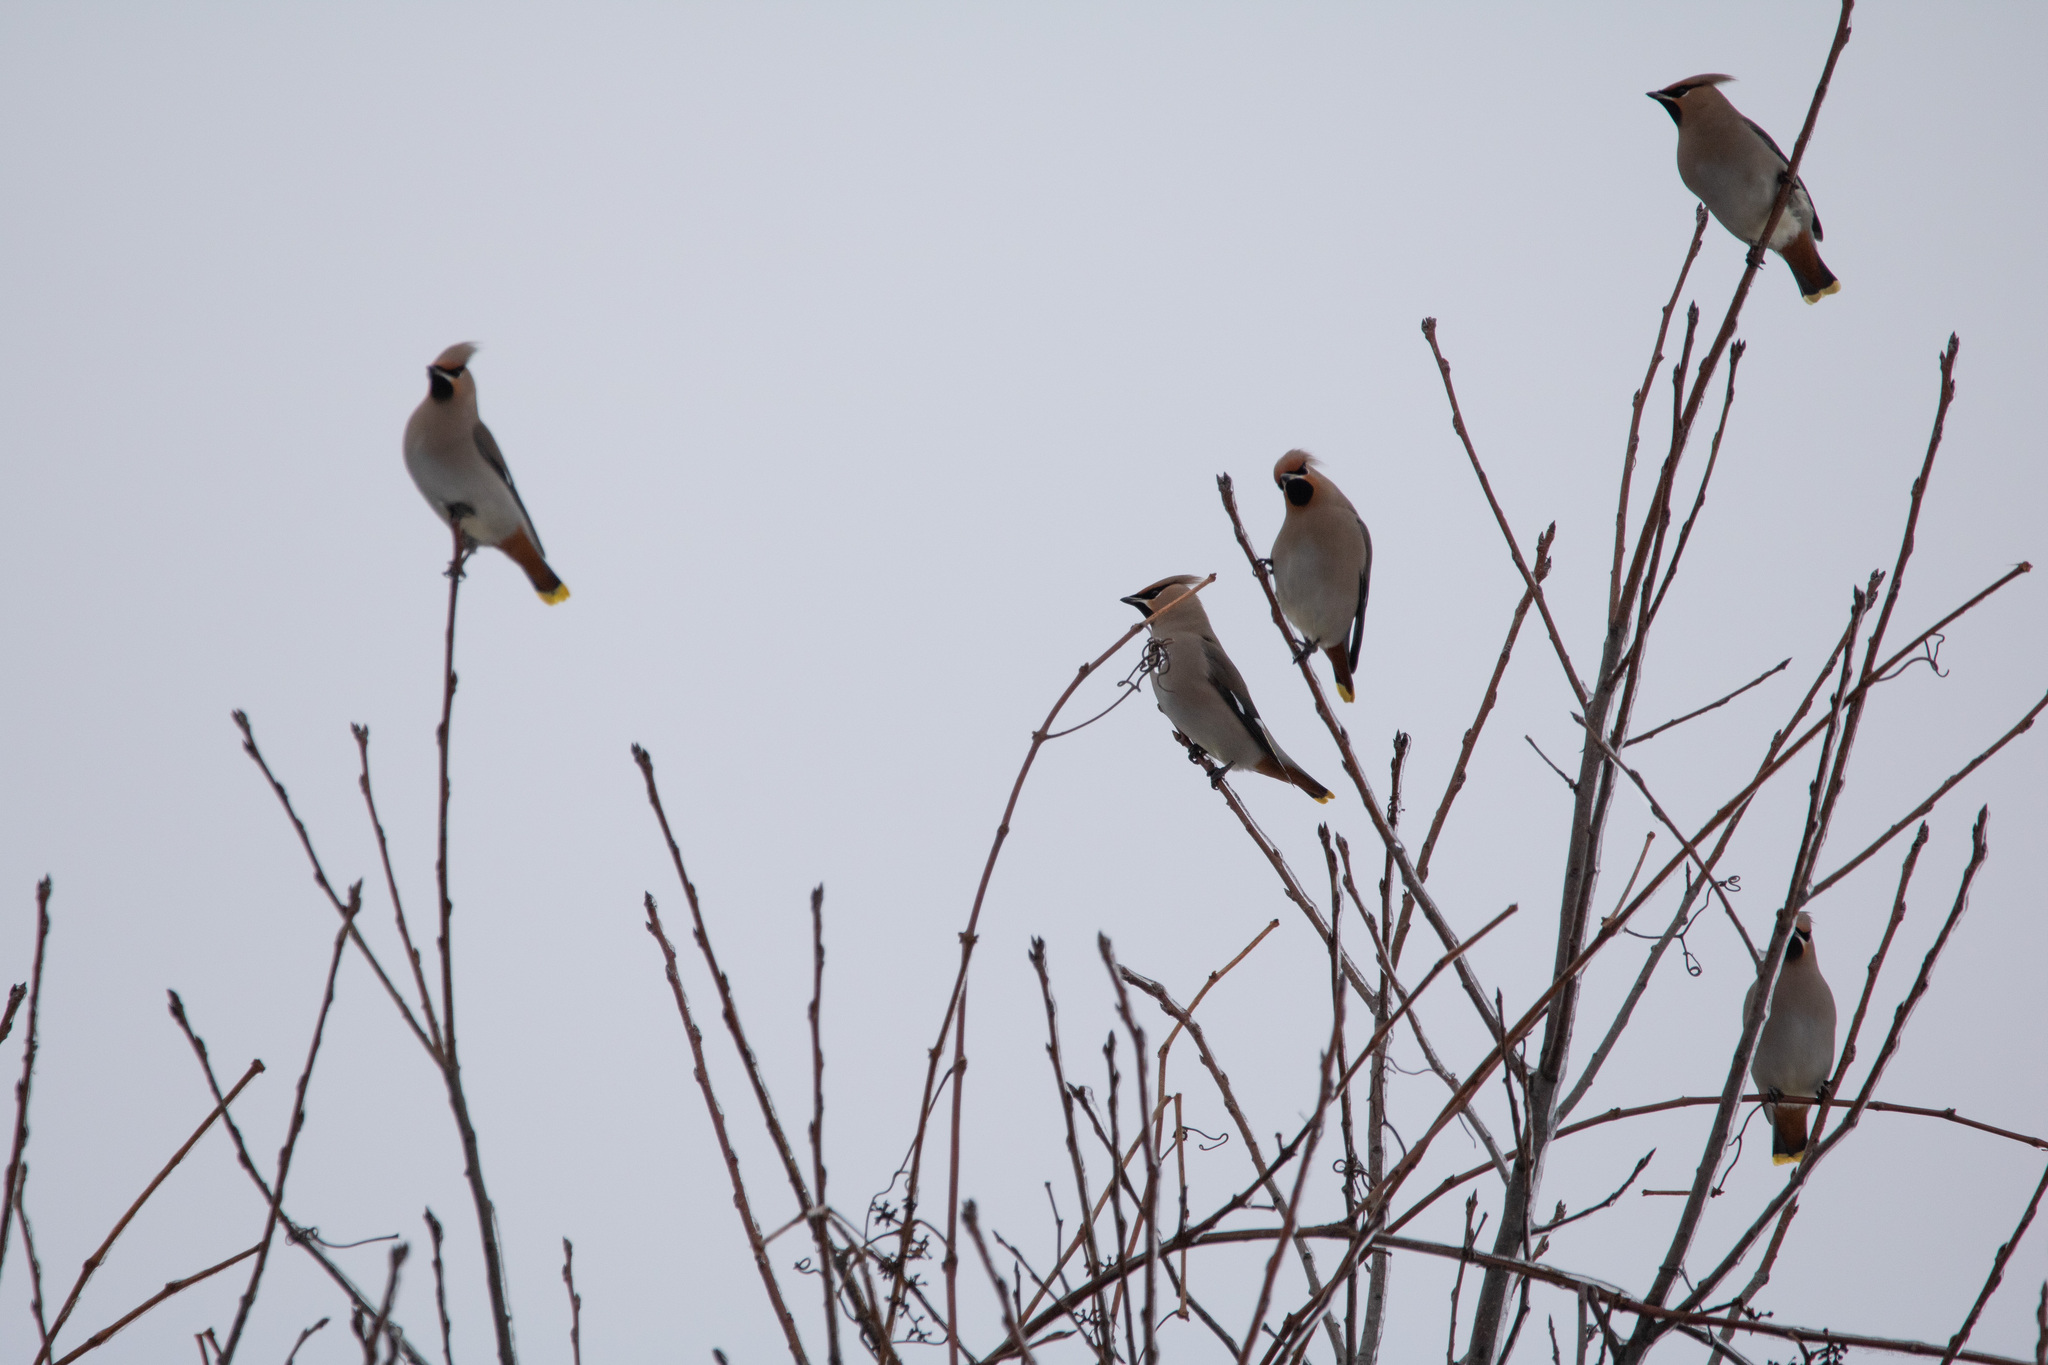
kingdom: Animalia
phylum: Chordata
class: Aves
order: Passeriformes
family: Bombycillidae
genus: Bombycilla
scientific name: Bombycilla garrulus
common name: Bohemian waxwing
